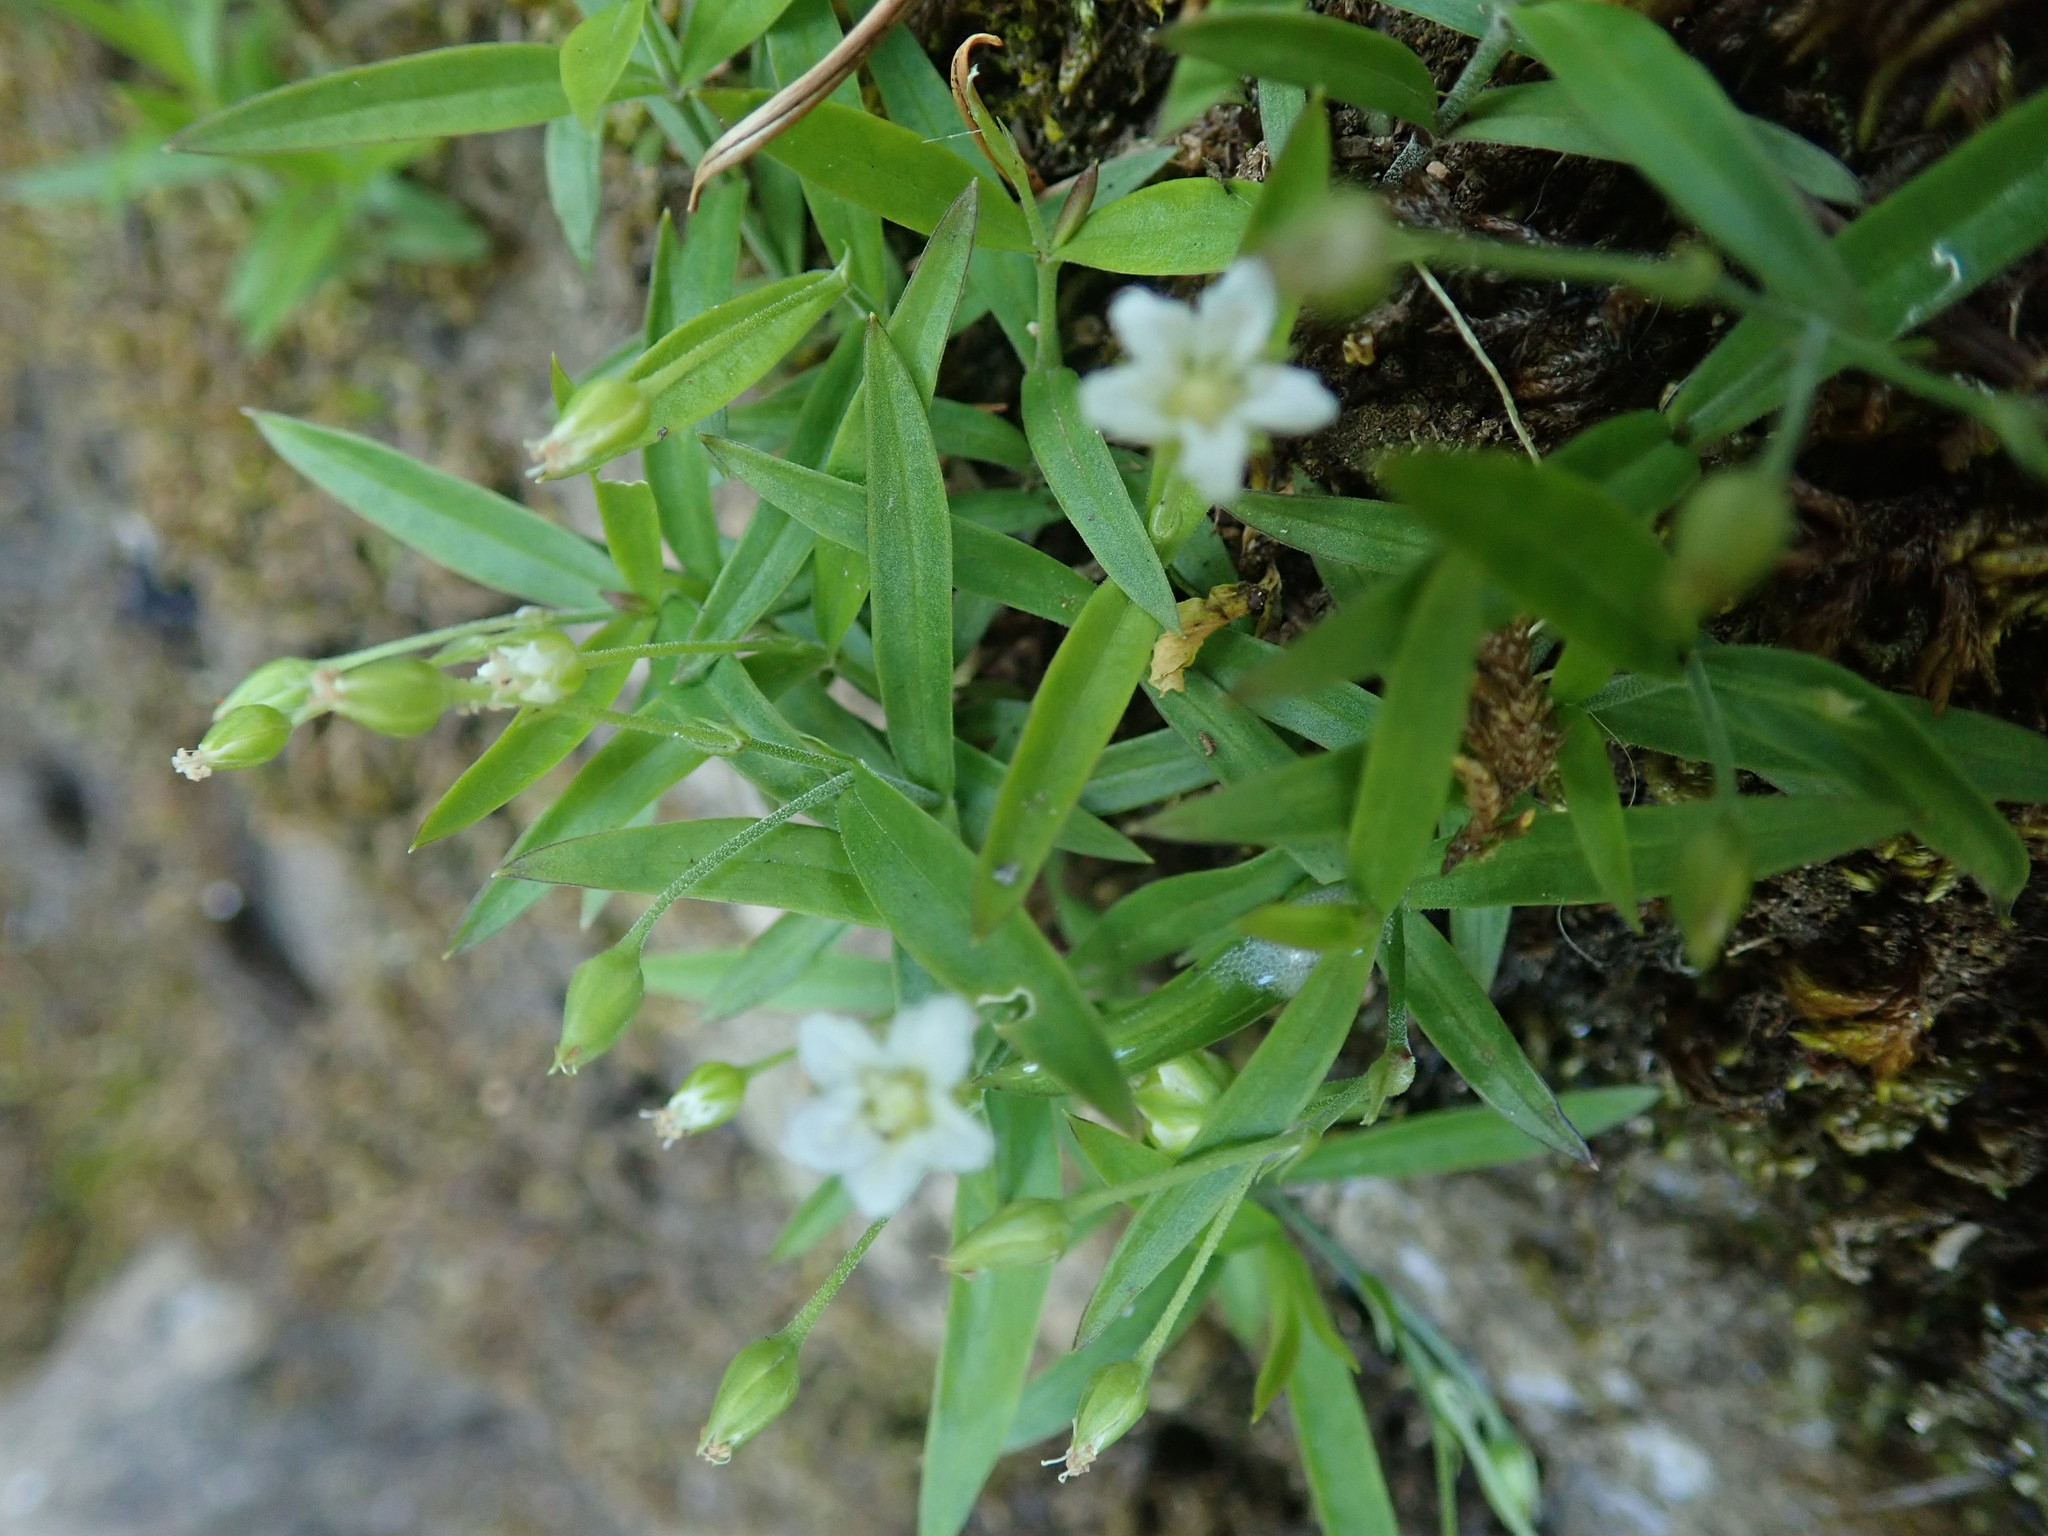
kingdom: Plantae
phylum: Tracheophyta
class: Magnoliopsida
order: Caryophyllales
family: Caryophyllaceae
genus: Moehringia
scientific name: Moehringia macrophylla
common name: Big-leaf sandwort
